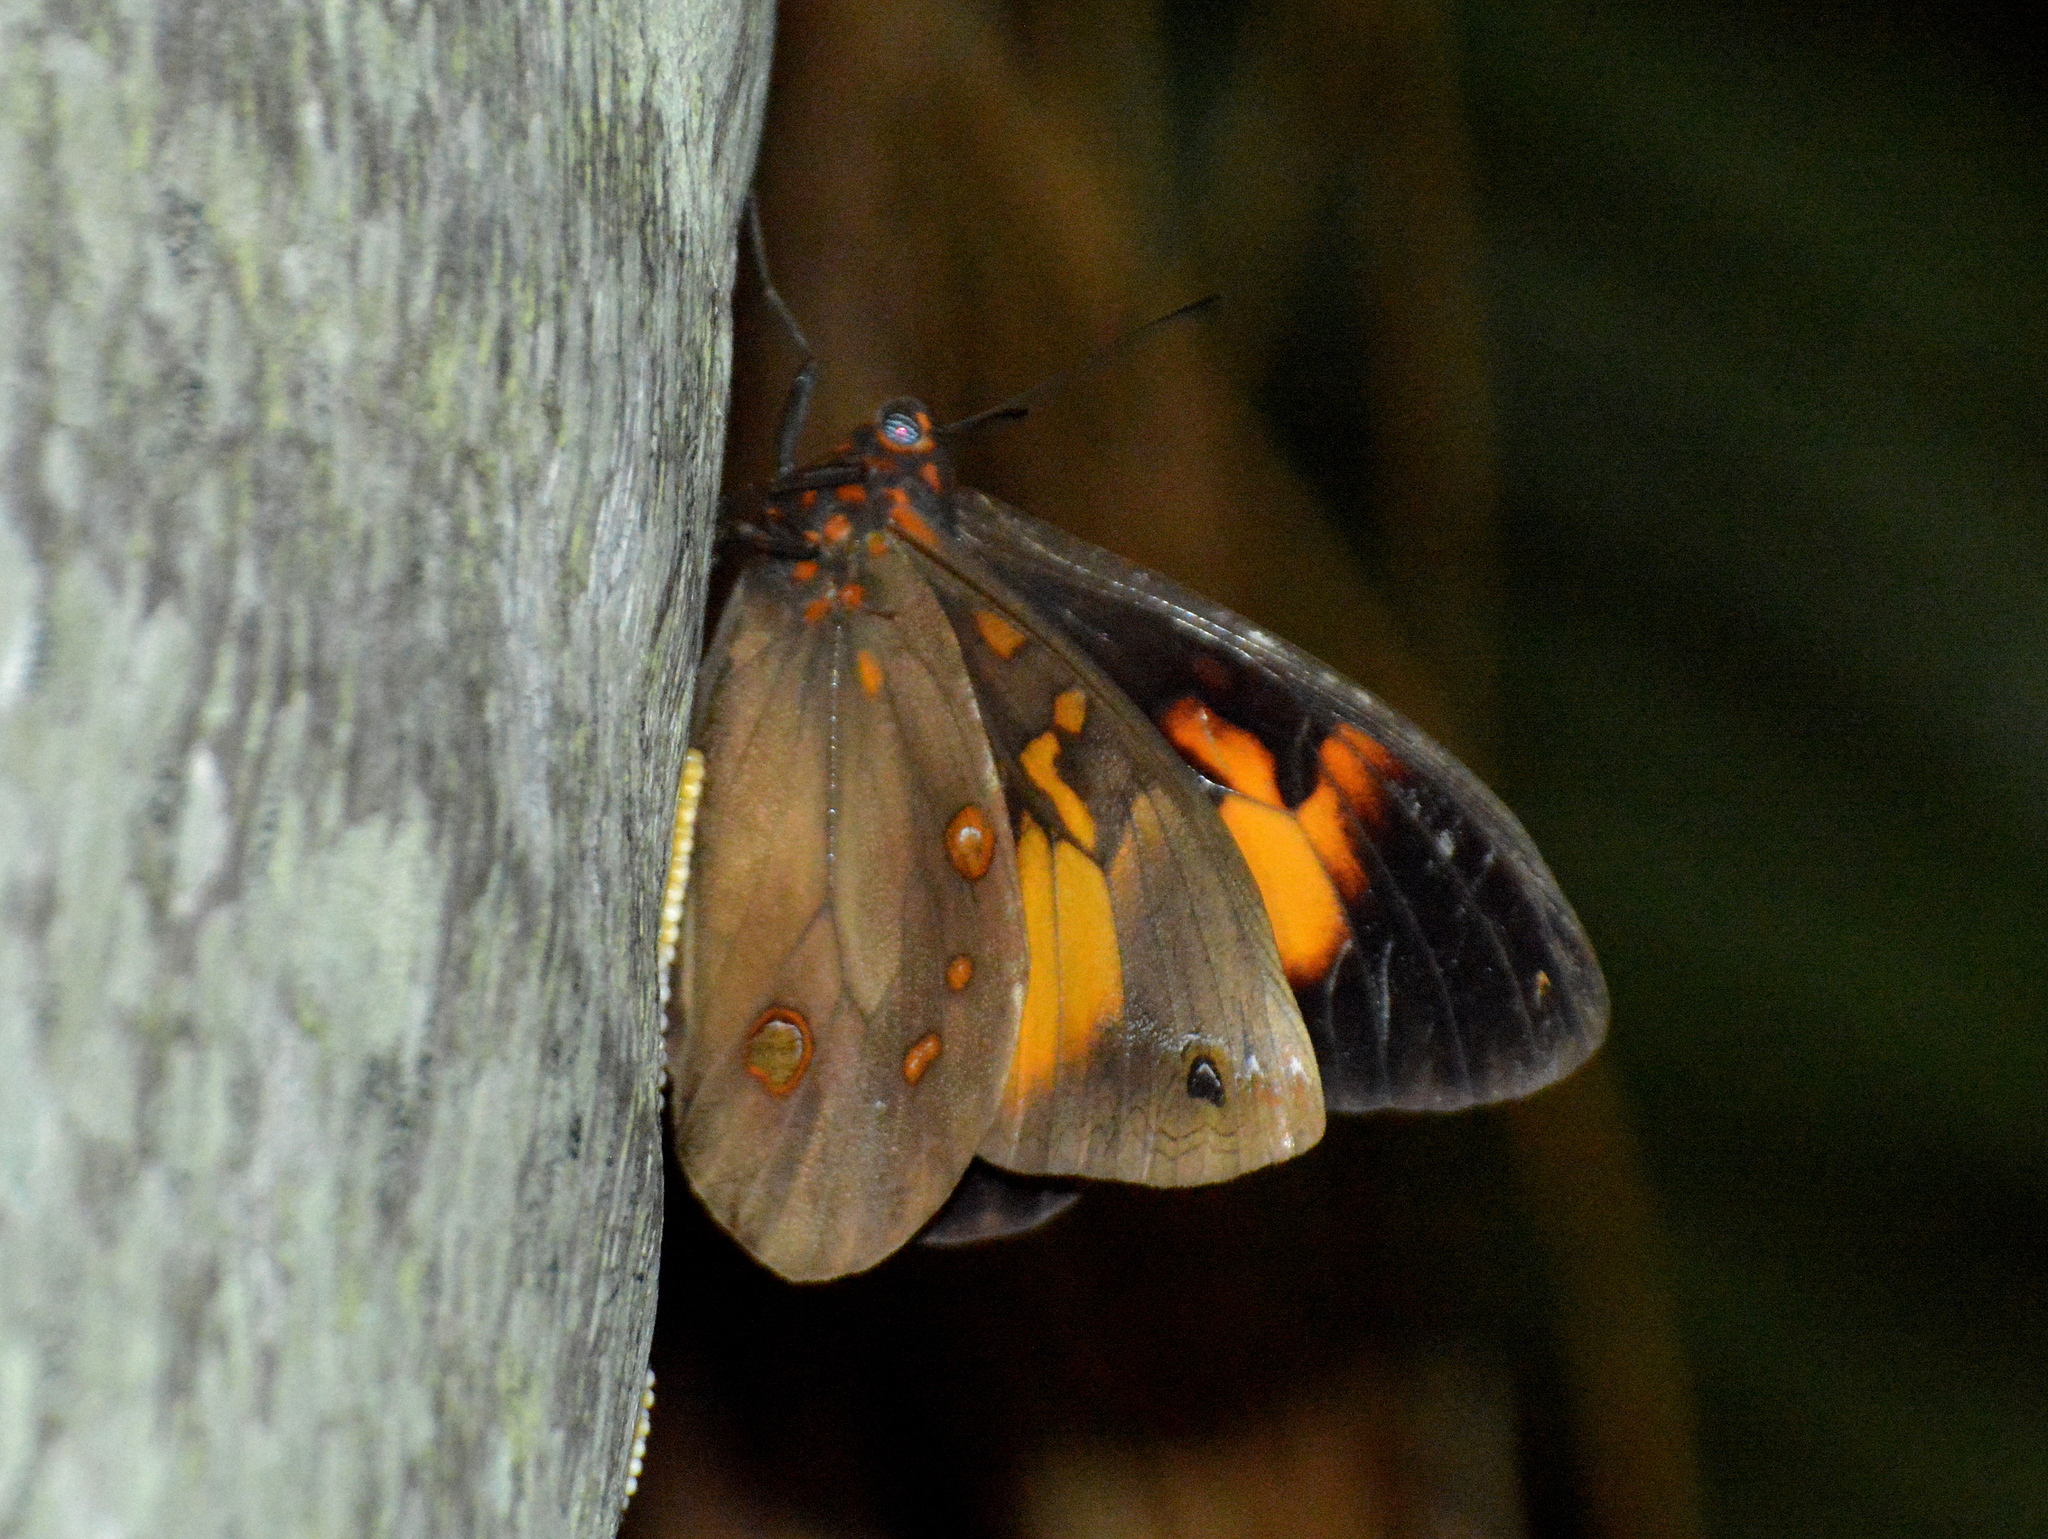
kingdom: Animalia
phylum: Arthropoda
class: Insecta
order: Lepidoptera
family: Nymphalidae
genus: Brassolis
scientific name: Brassolis astyra
